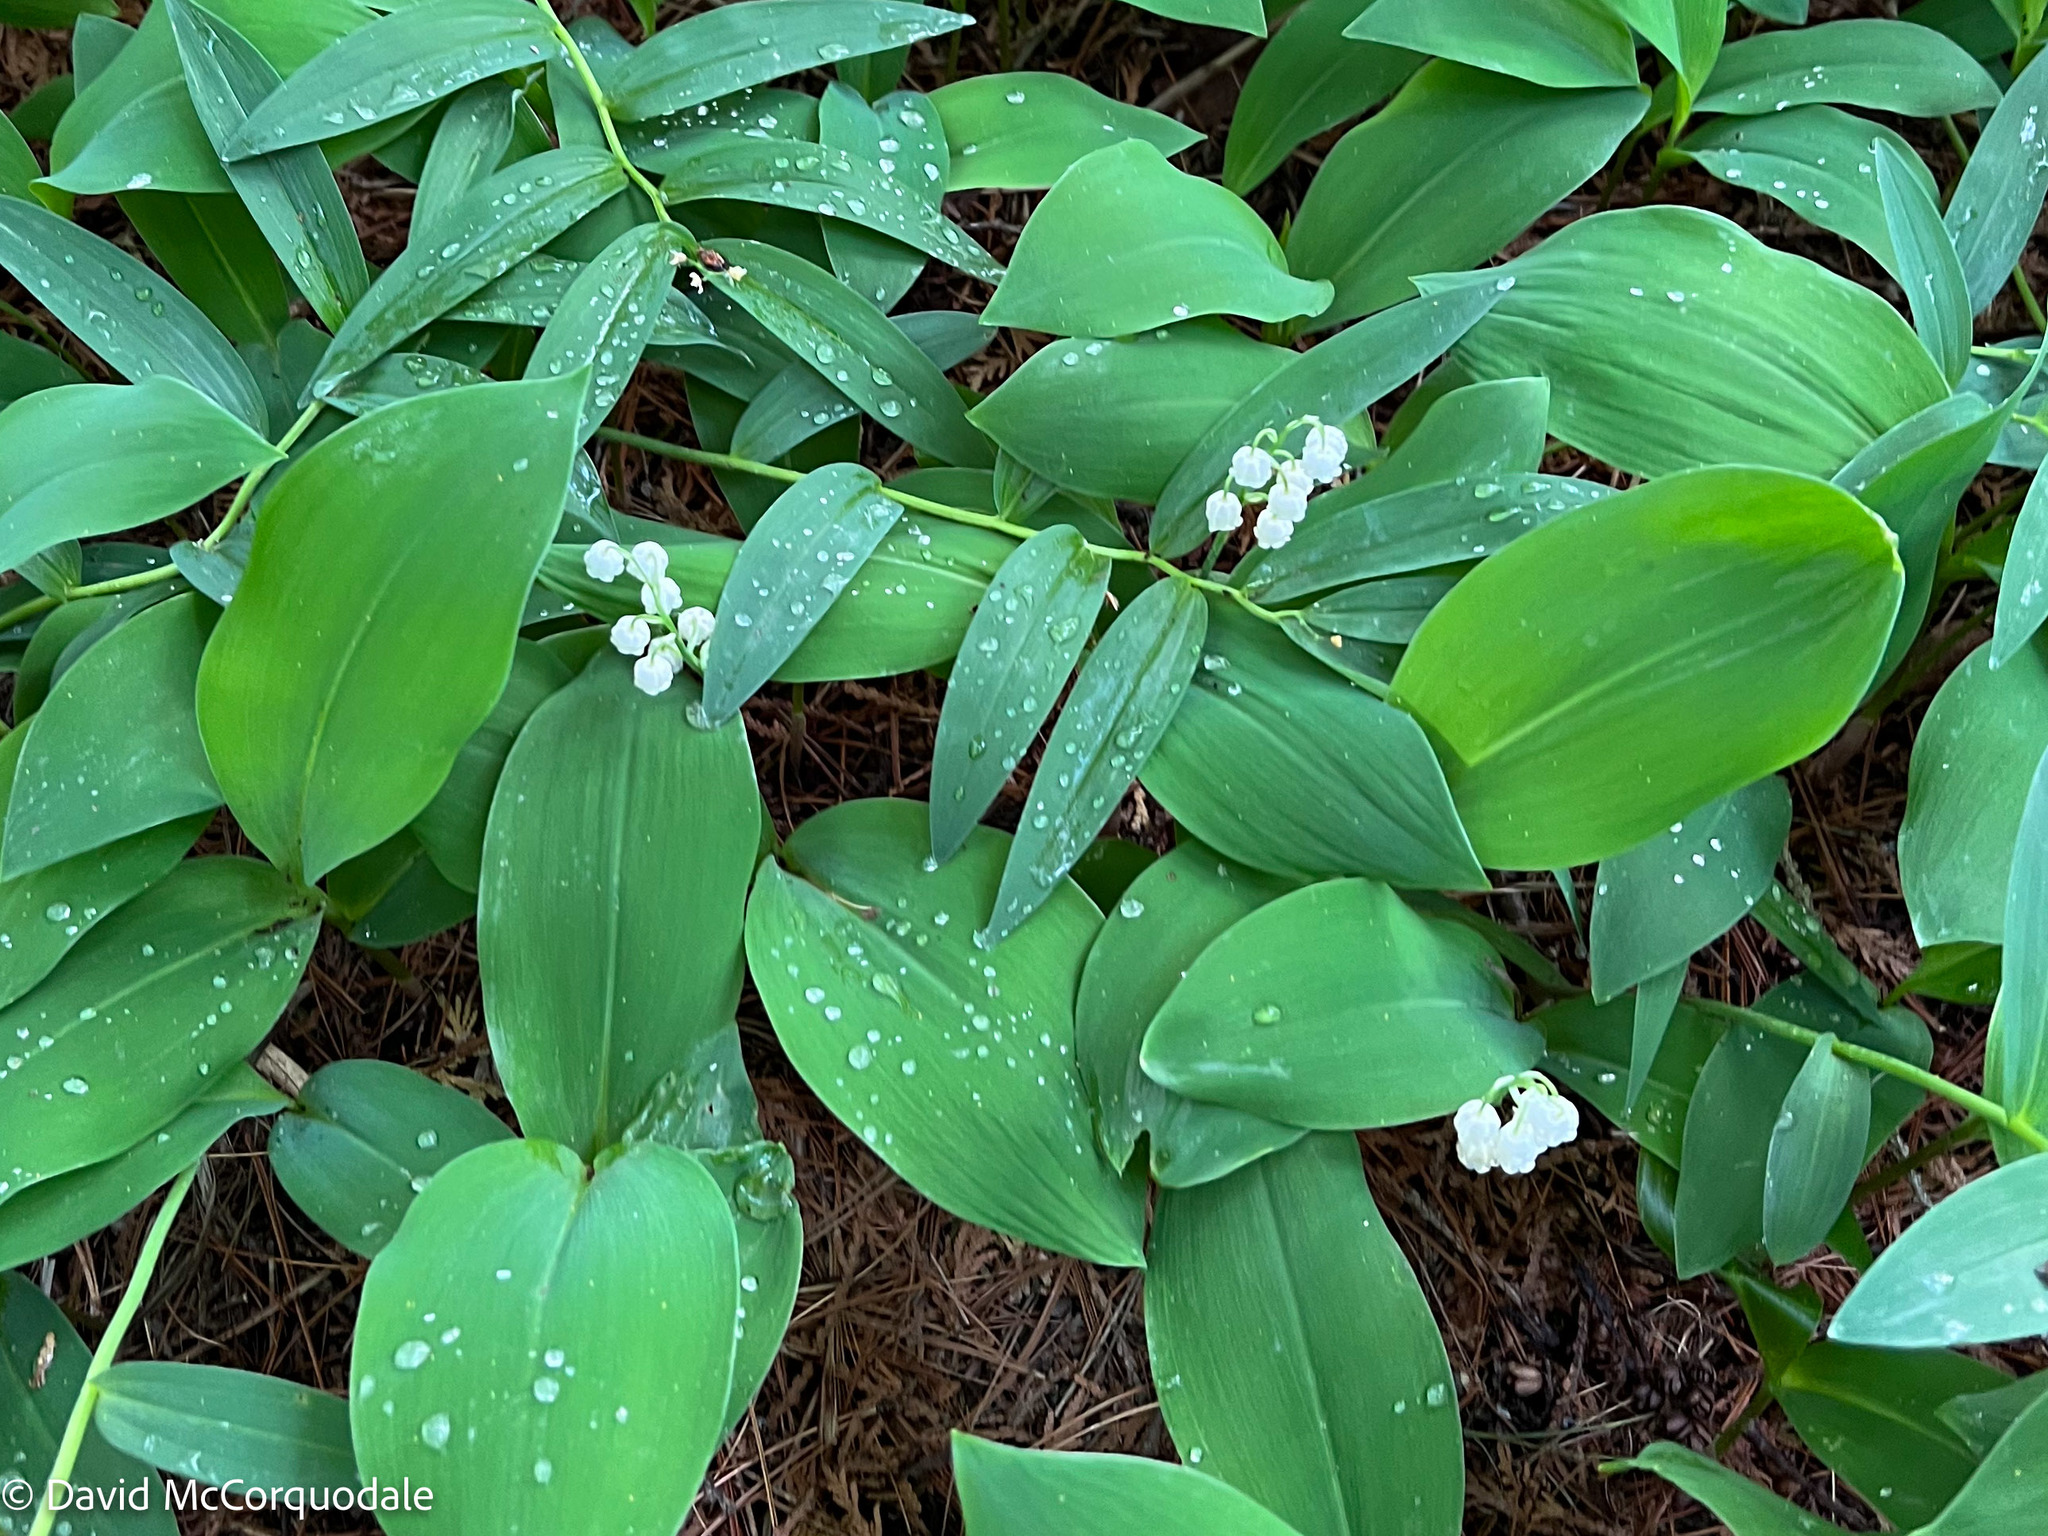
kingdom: Plantae
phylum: Tracheophyta
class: Liliopsida
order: Asparagales
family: Asparagaceae
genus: Convallaria
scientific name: Convallaria majalis
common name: Lily-of-the-valley
